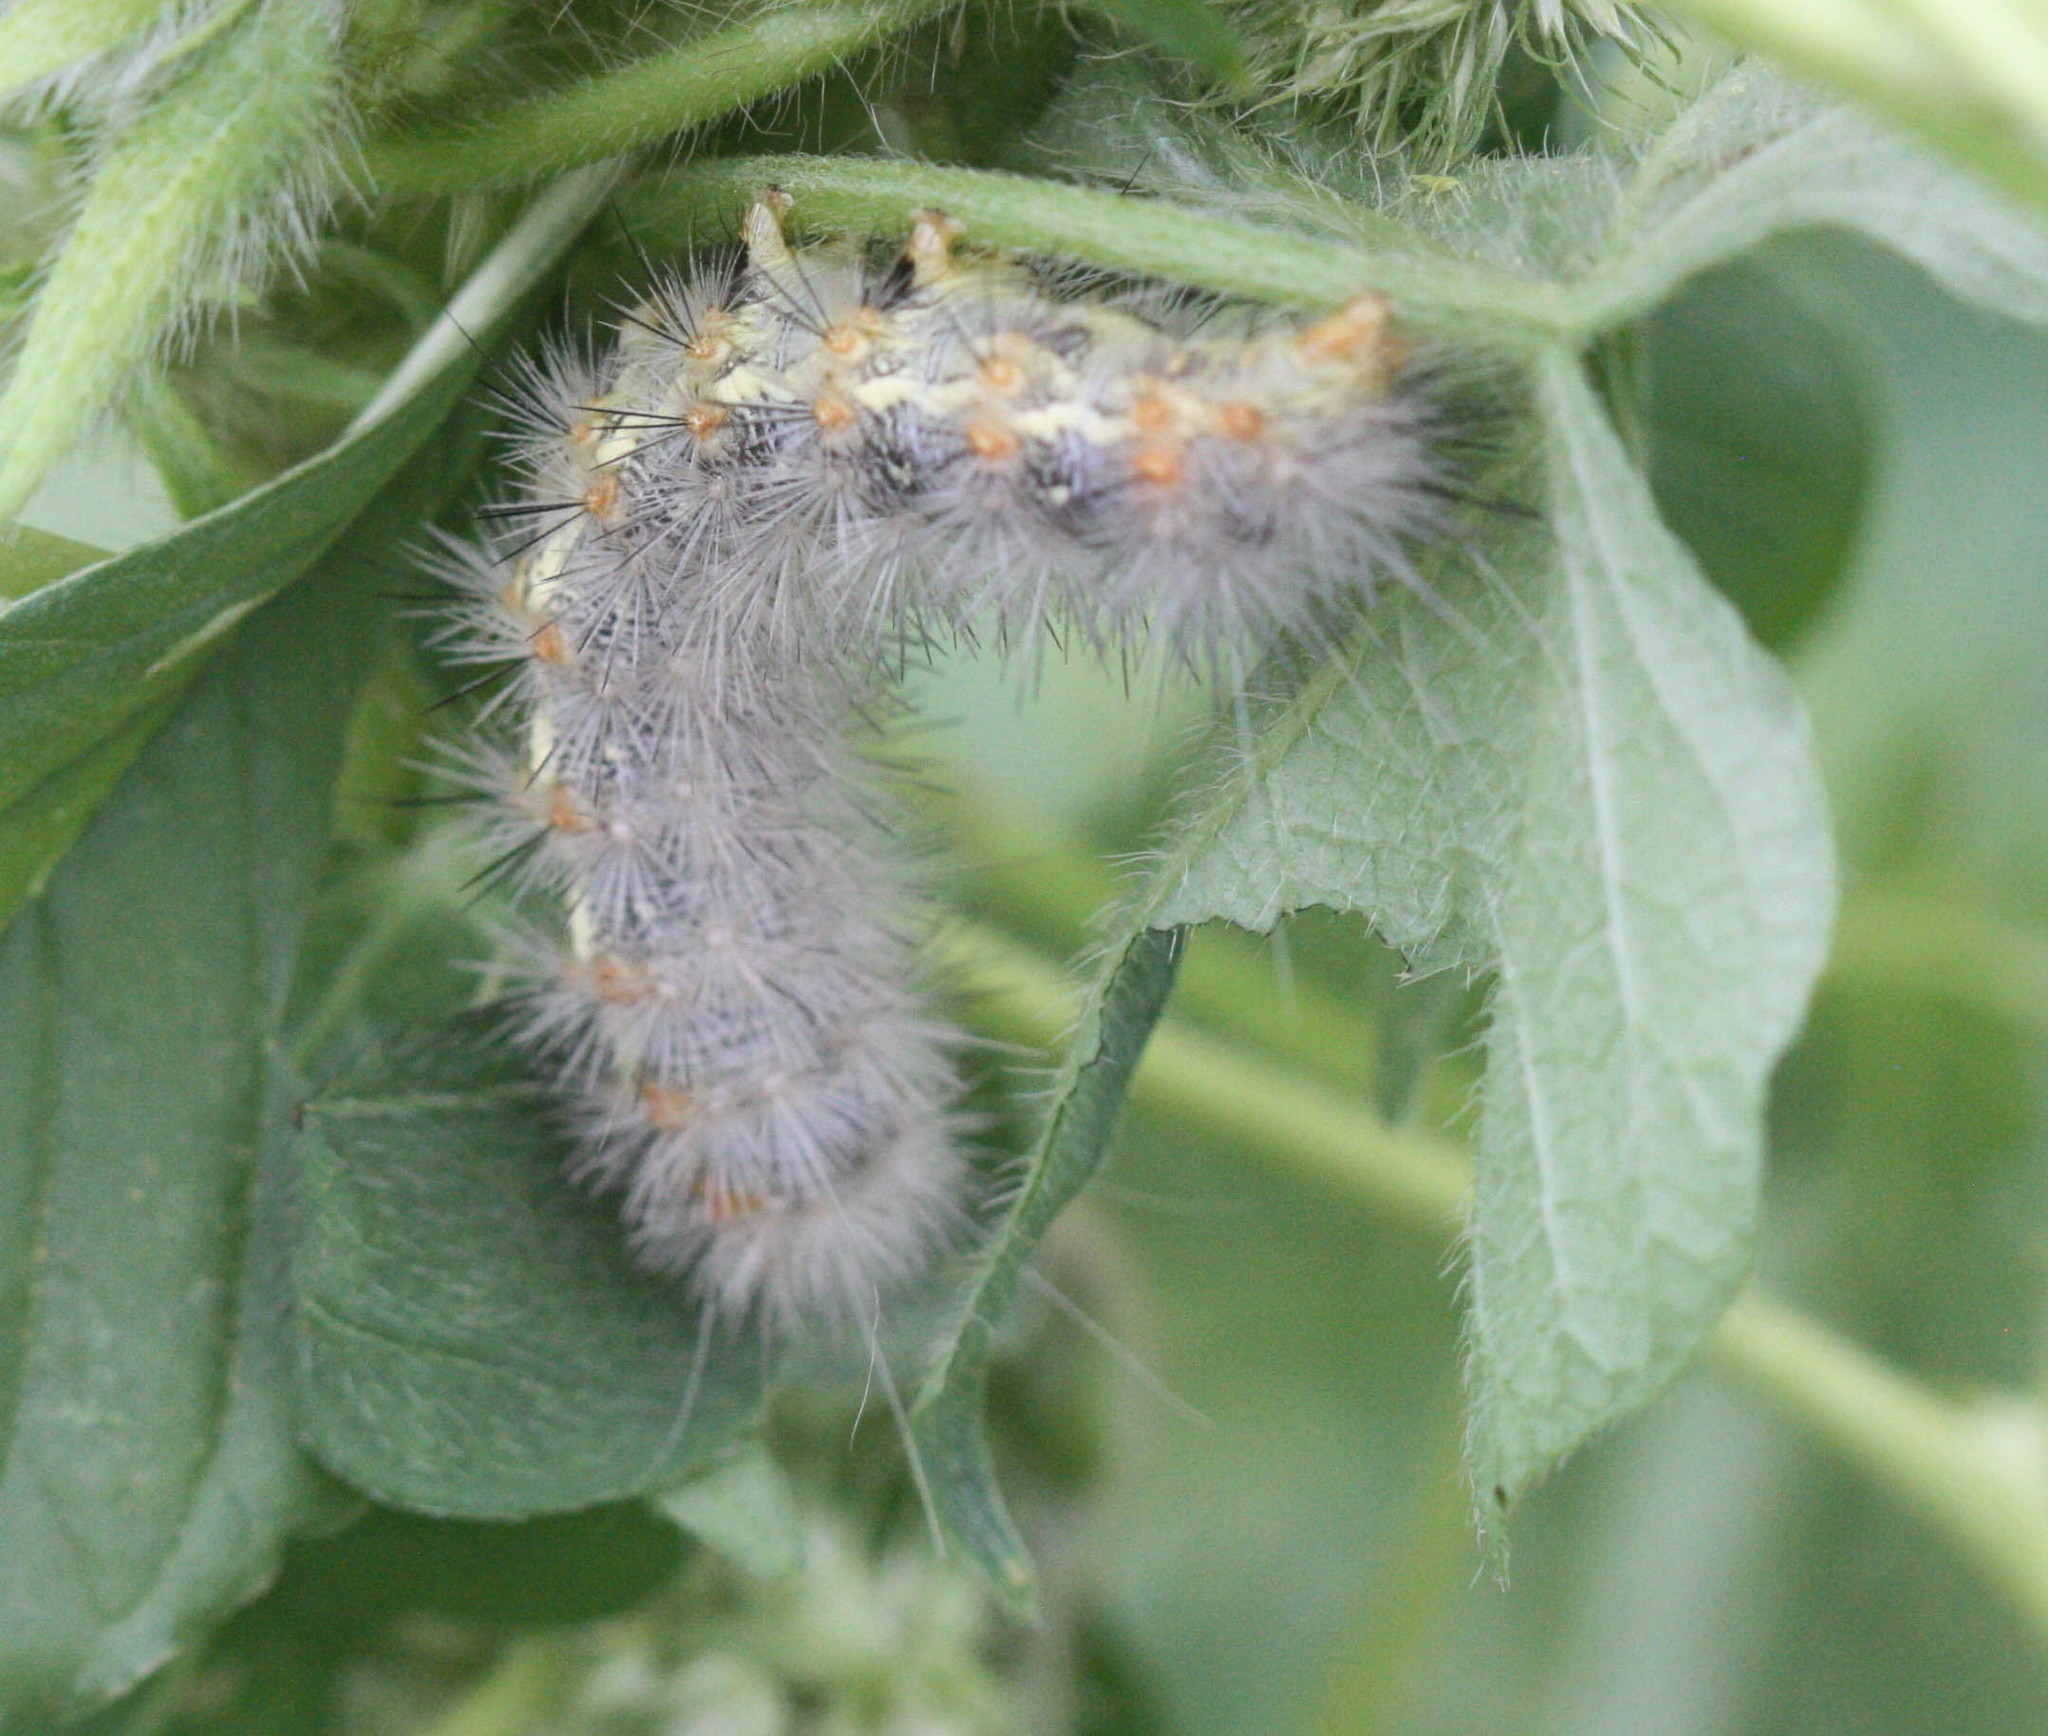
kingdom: Animalia
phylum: Arthropoda
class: Insecta
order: Lepidoptera
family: Erebidae
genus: Hypercompe
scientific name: Hypercompe suffusa
